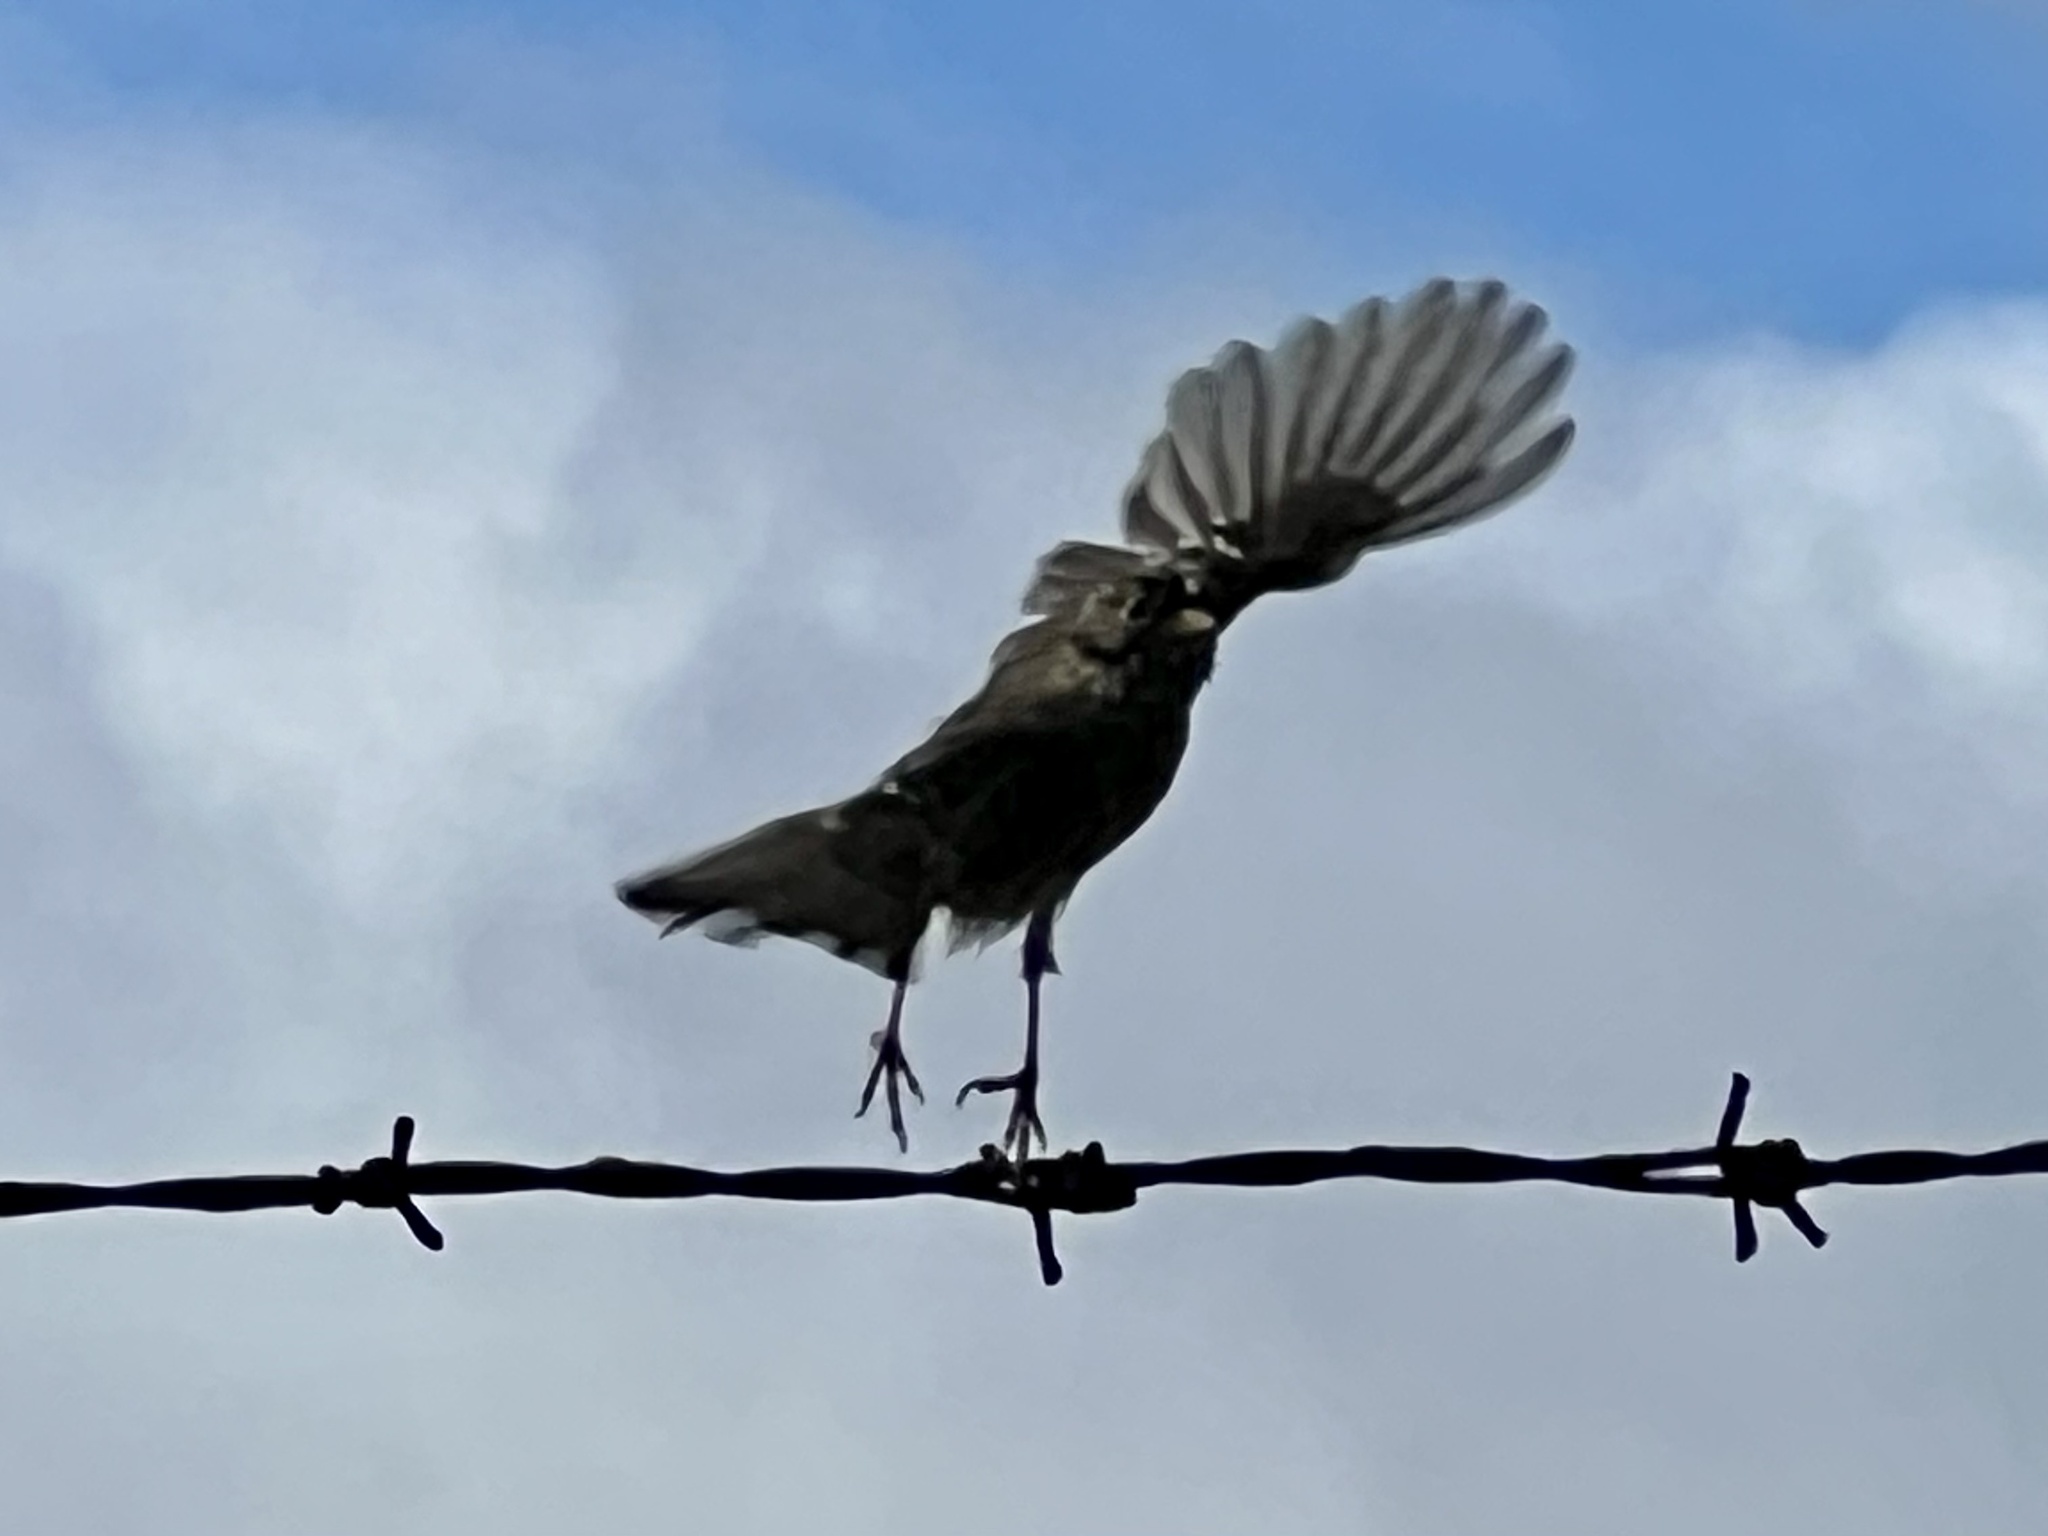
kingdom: Animalia
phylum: Chordata
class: Aves
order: Passeriformes
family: Passerellidae
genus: Zonotrichia
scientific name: Zonotrichia leucophrys
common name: White-crowned sparrow
